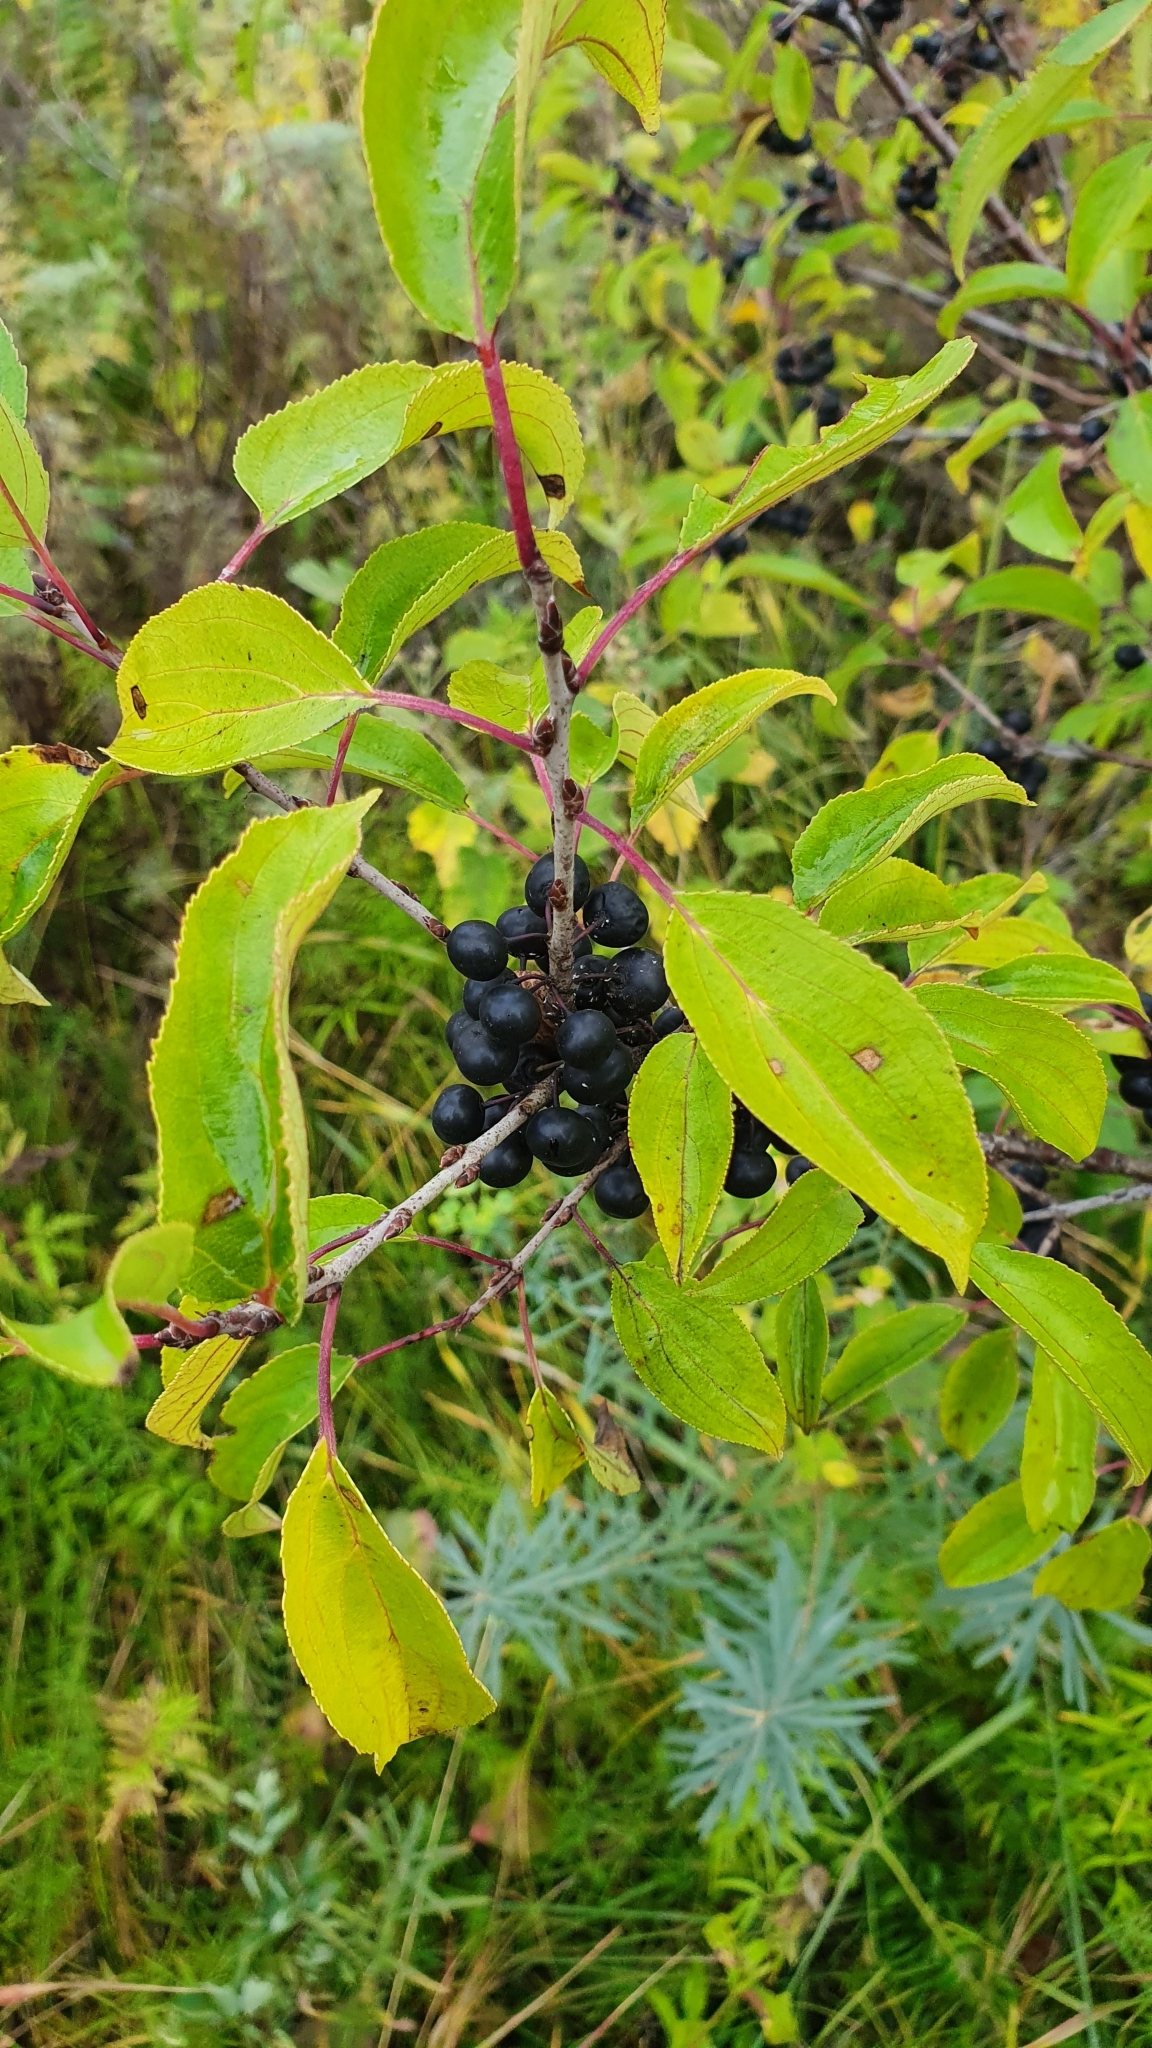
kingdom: Plantae
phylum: Tracheophyta
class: Magnoliopsida
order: Rosales
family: Rhamnaceae
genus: Rhamnus
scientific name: Rhamnus cathartica
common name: Common buckthorn
